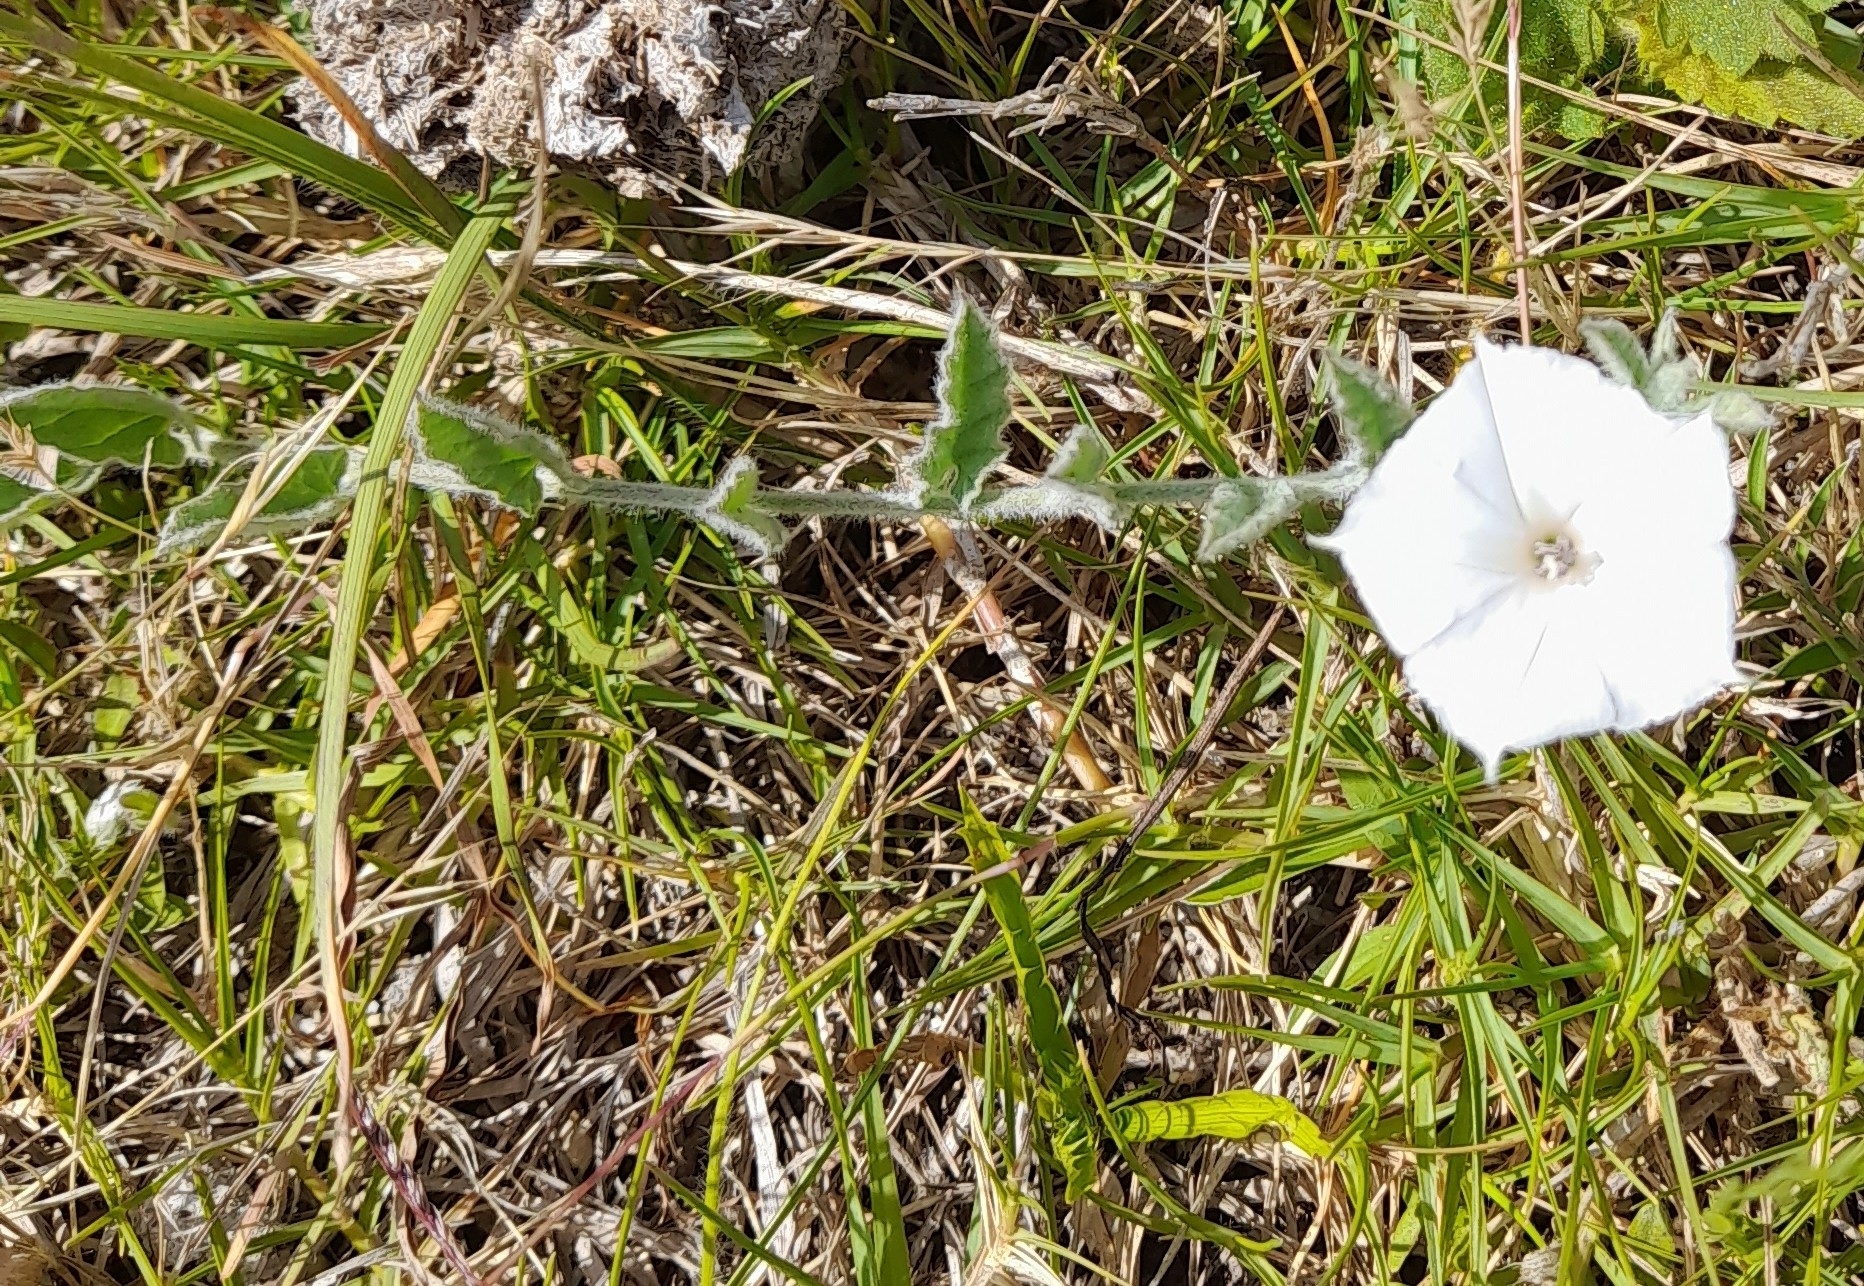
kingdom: Plantae
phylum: Tracheophyta
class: Magnoliopsida
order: Solanales
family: Convolvulaceae
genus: Convolvulus
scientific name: Convolvulus hermanniae
